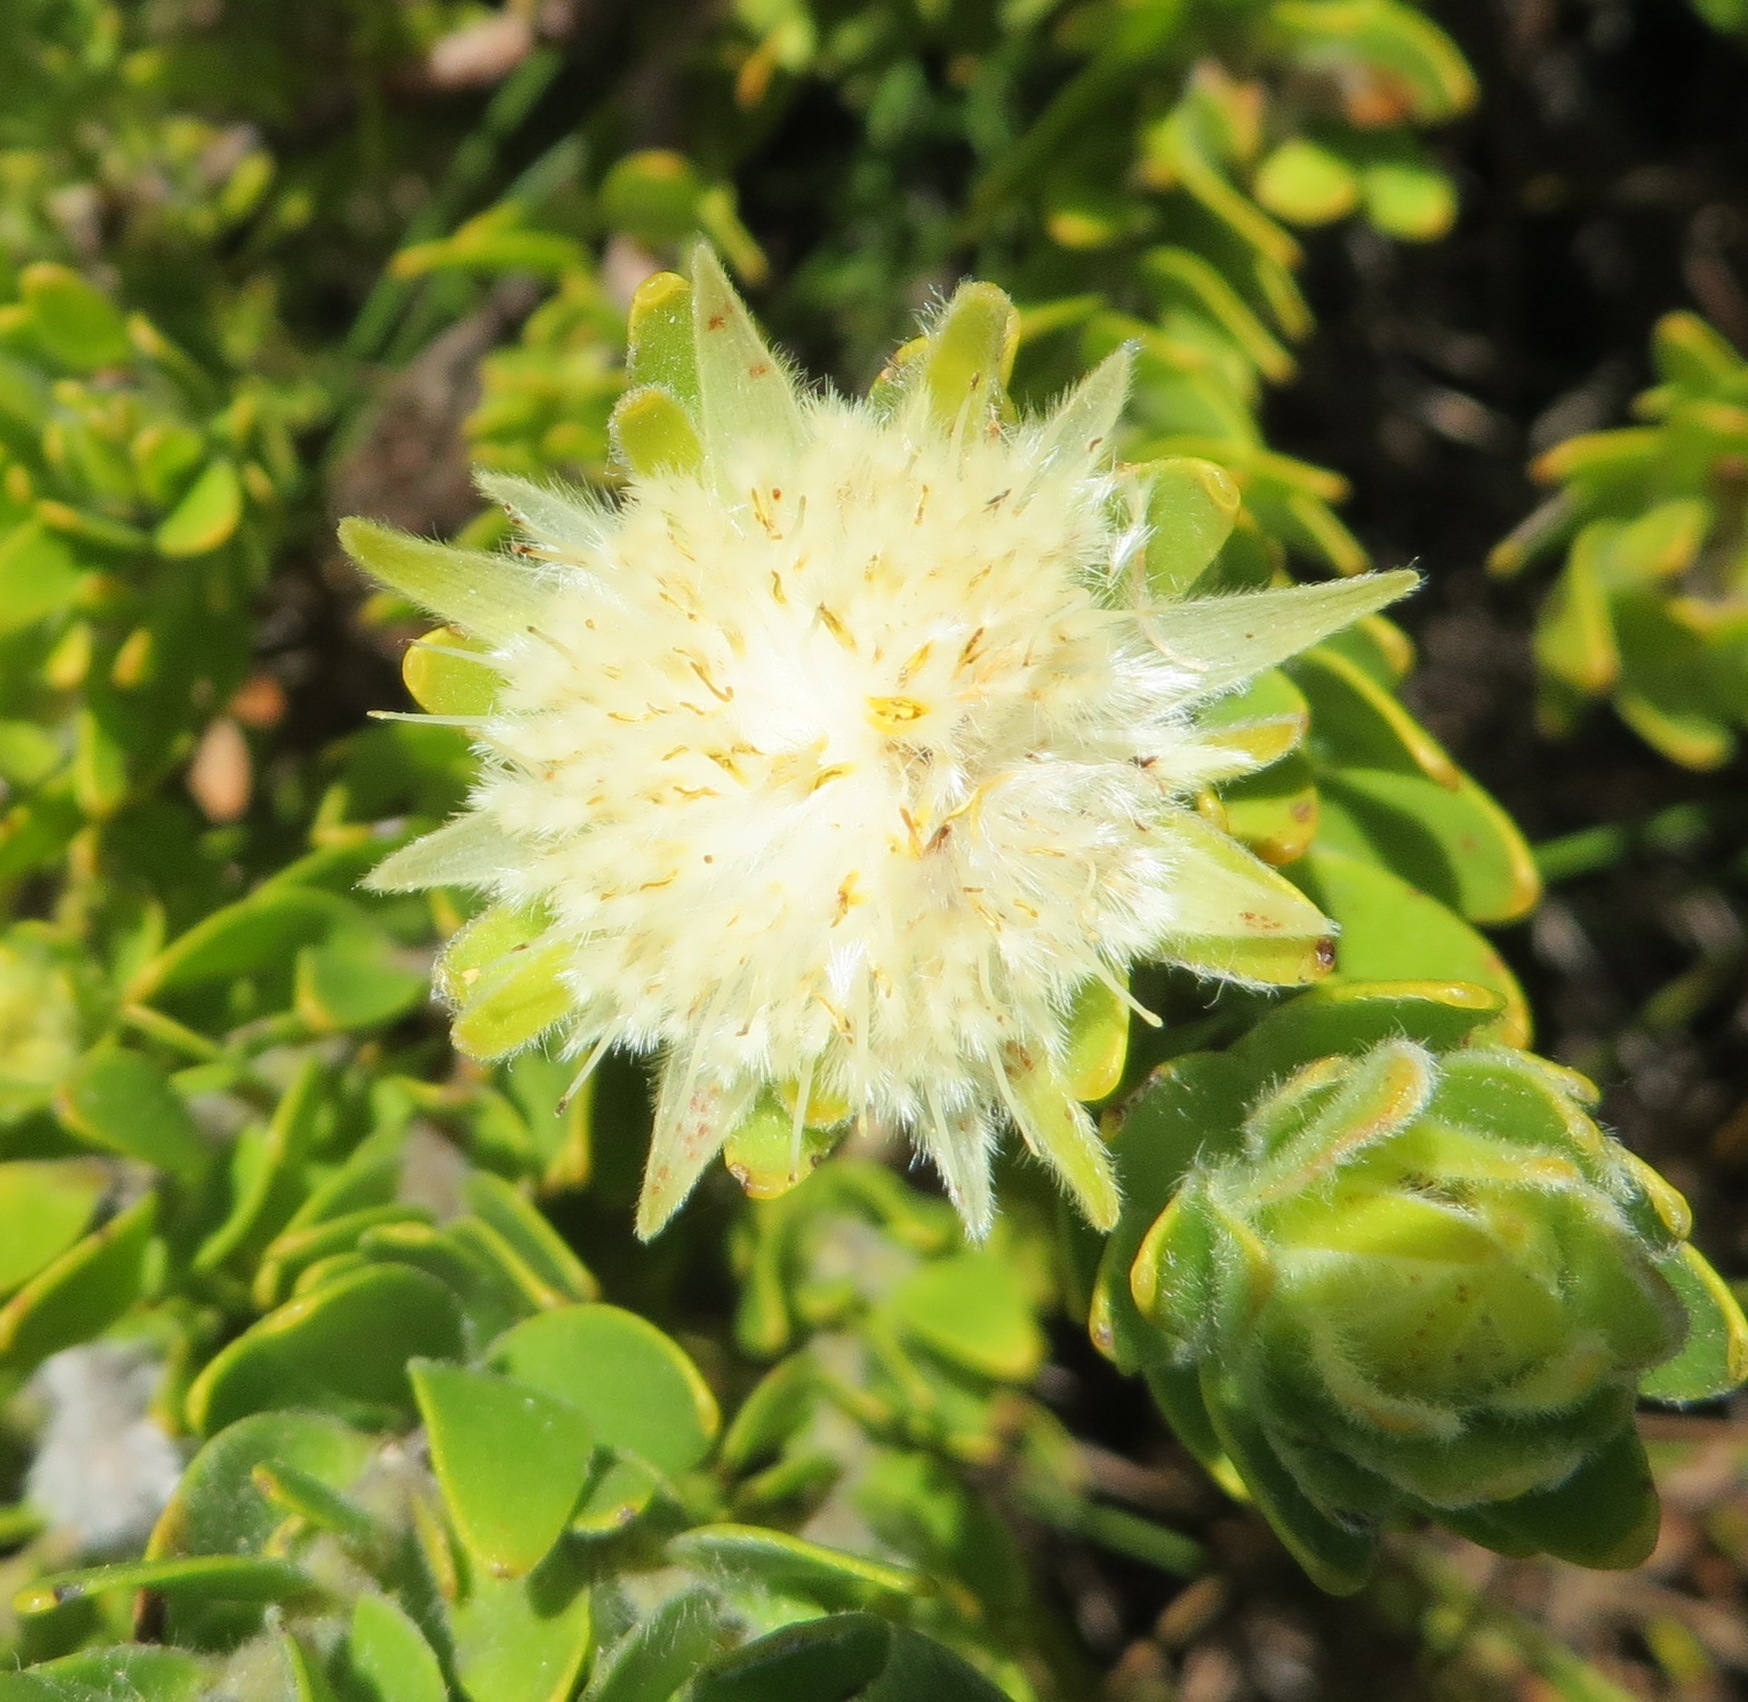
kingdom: Plantae
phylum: Tracheophyta
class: Magnoliopsida
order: Proteales
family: Proteaceae
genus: Diastella
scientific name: Diastella thymelaeoides
